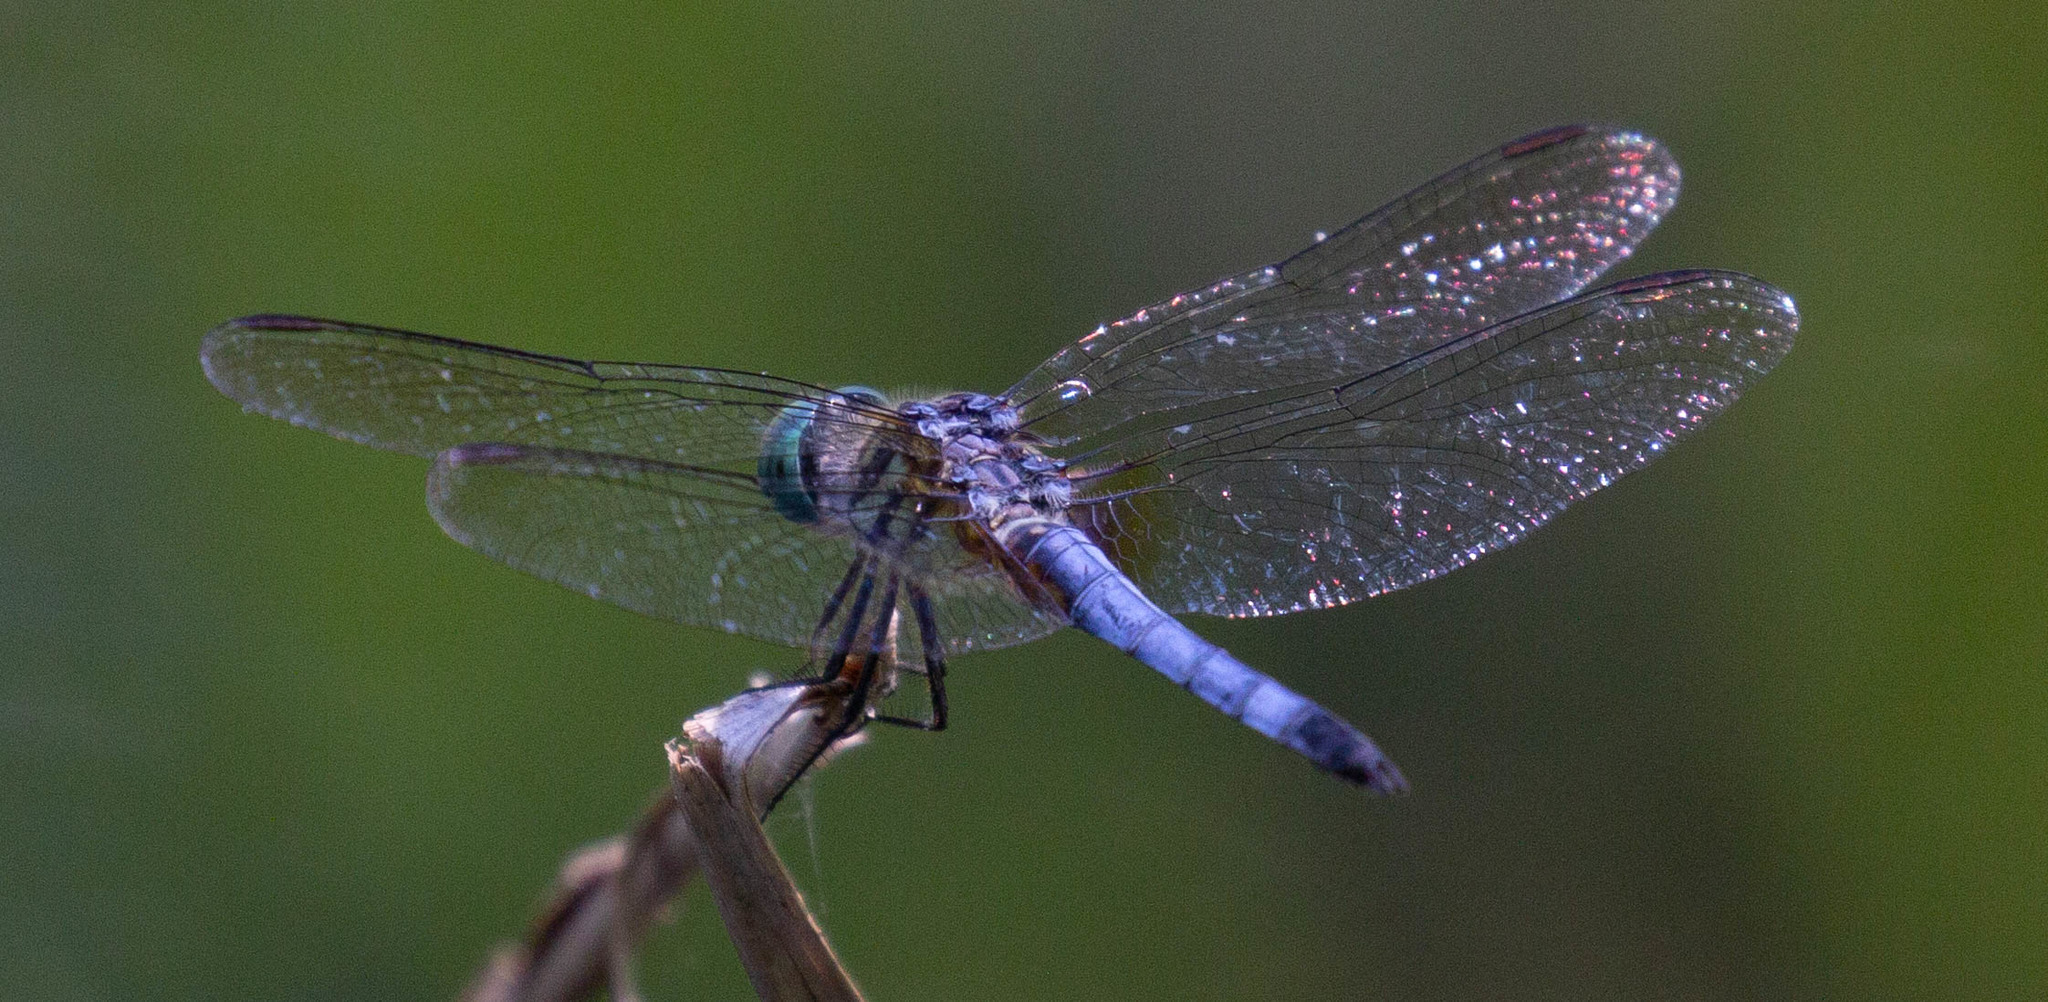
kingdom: Animalia
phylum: Arthropoda
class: Insecta
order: Odonata
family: Libellulidae
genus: Pachydiplax
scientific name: Pachydiplax longipennis
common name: Blue dasher
